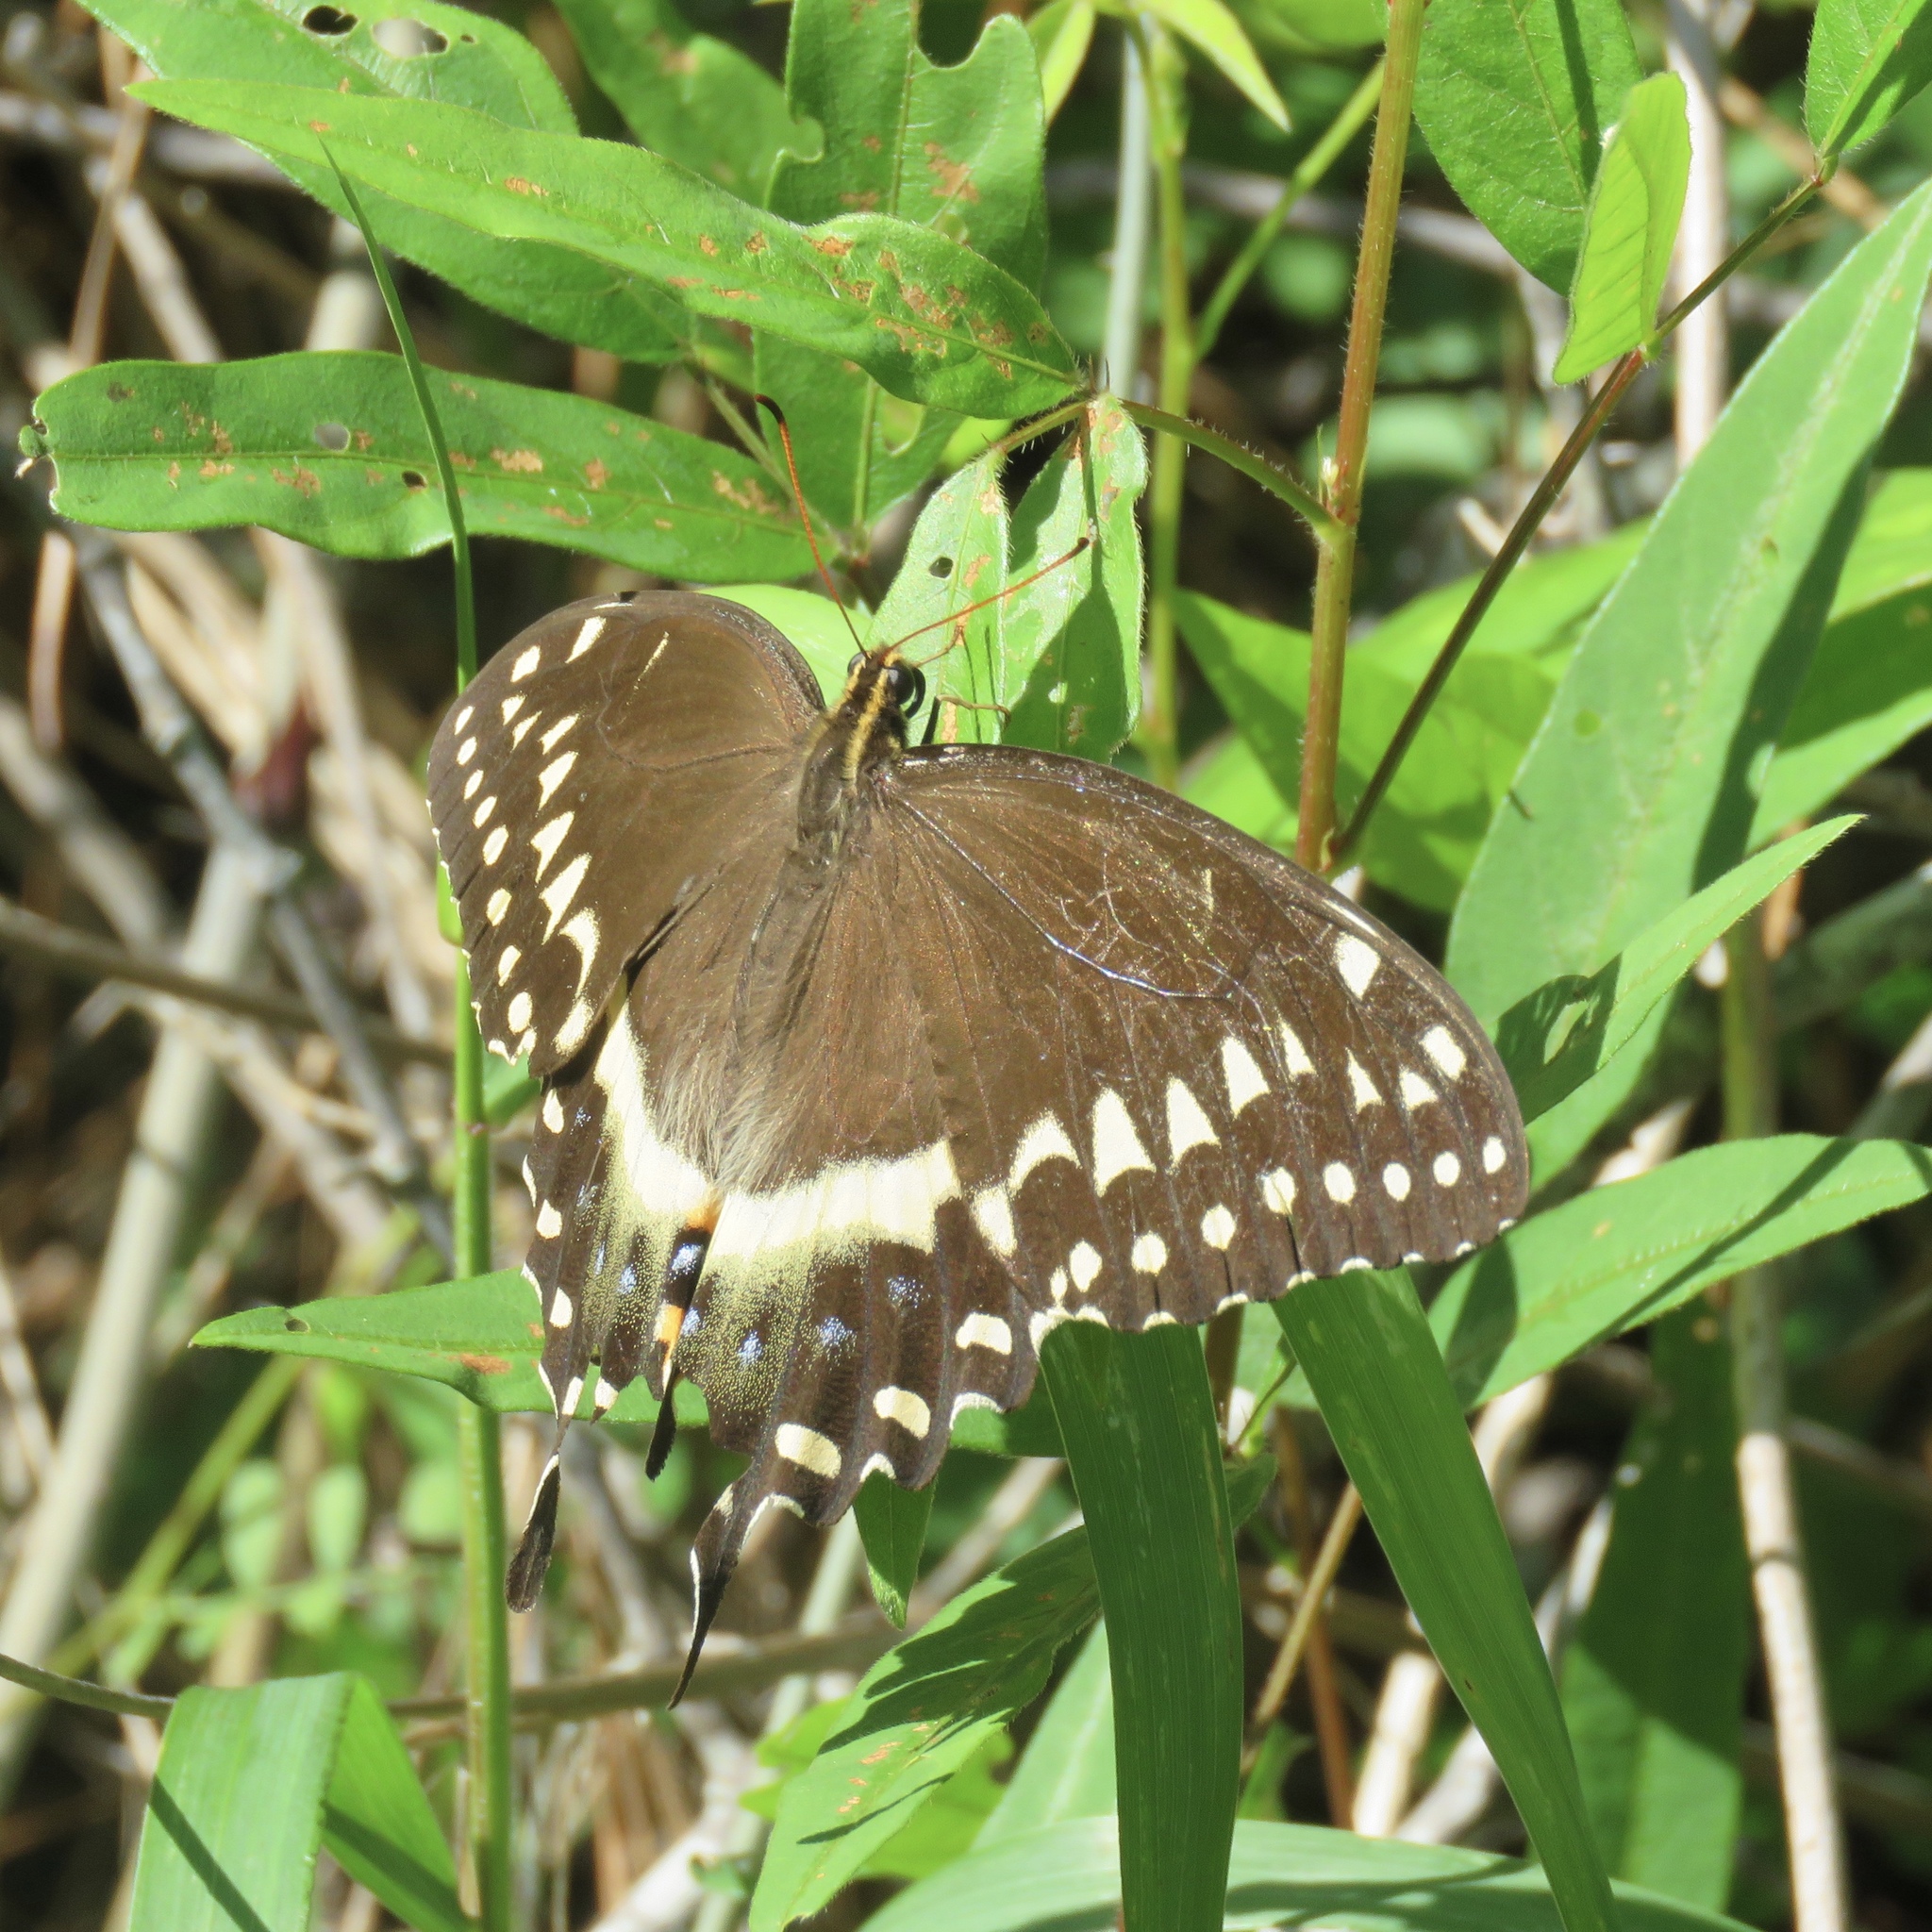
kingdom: Animalia
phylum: Arthropoda
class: Insecta
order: Lepidoptera
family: Papilionidae
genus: Papilio
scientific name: Papilio palamedes
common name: Palamedes swallowtail
